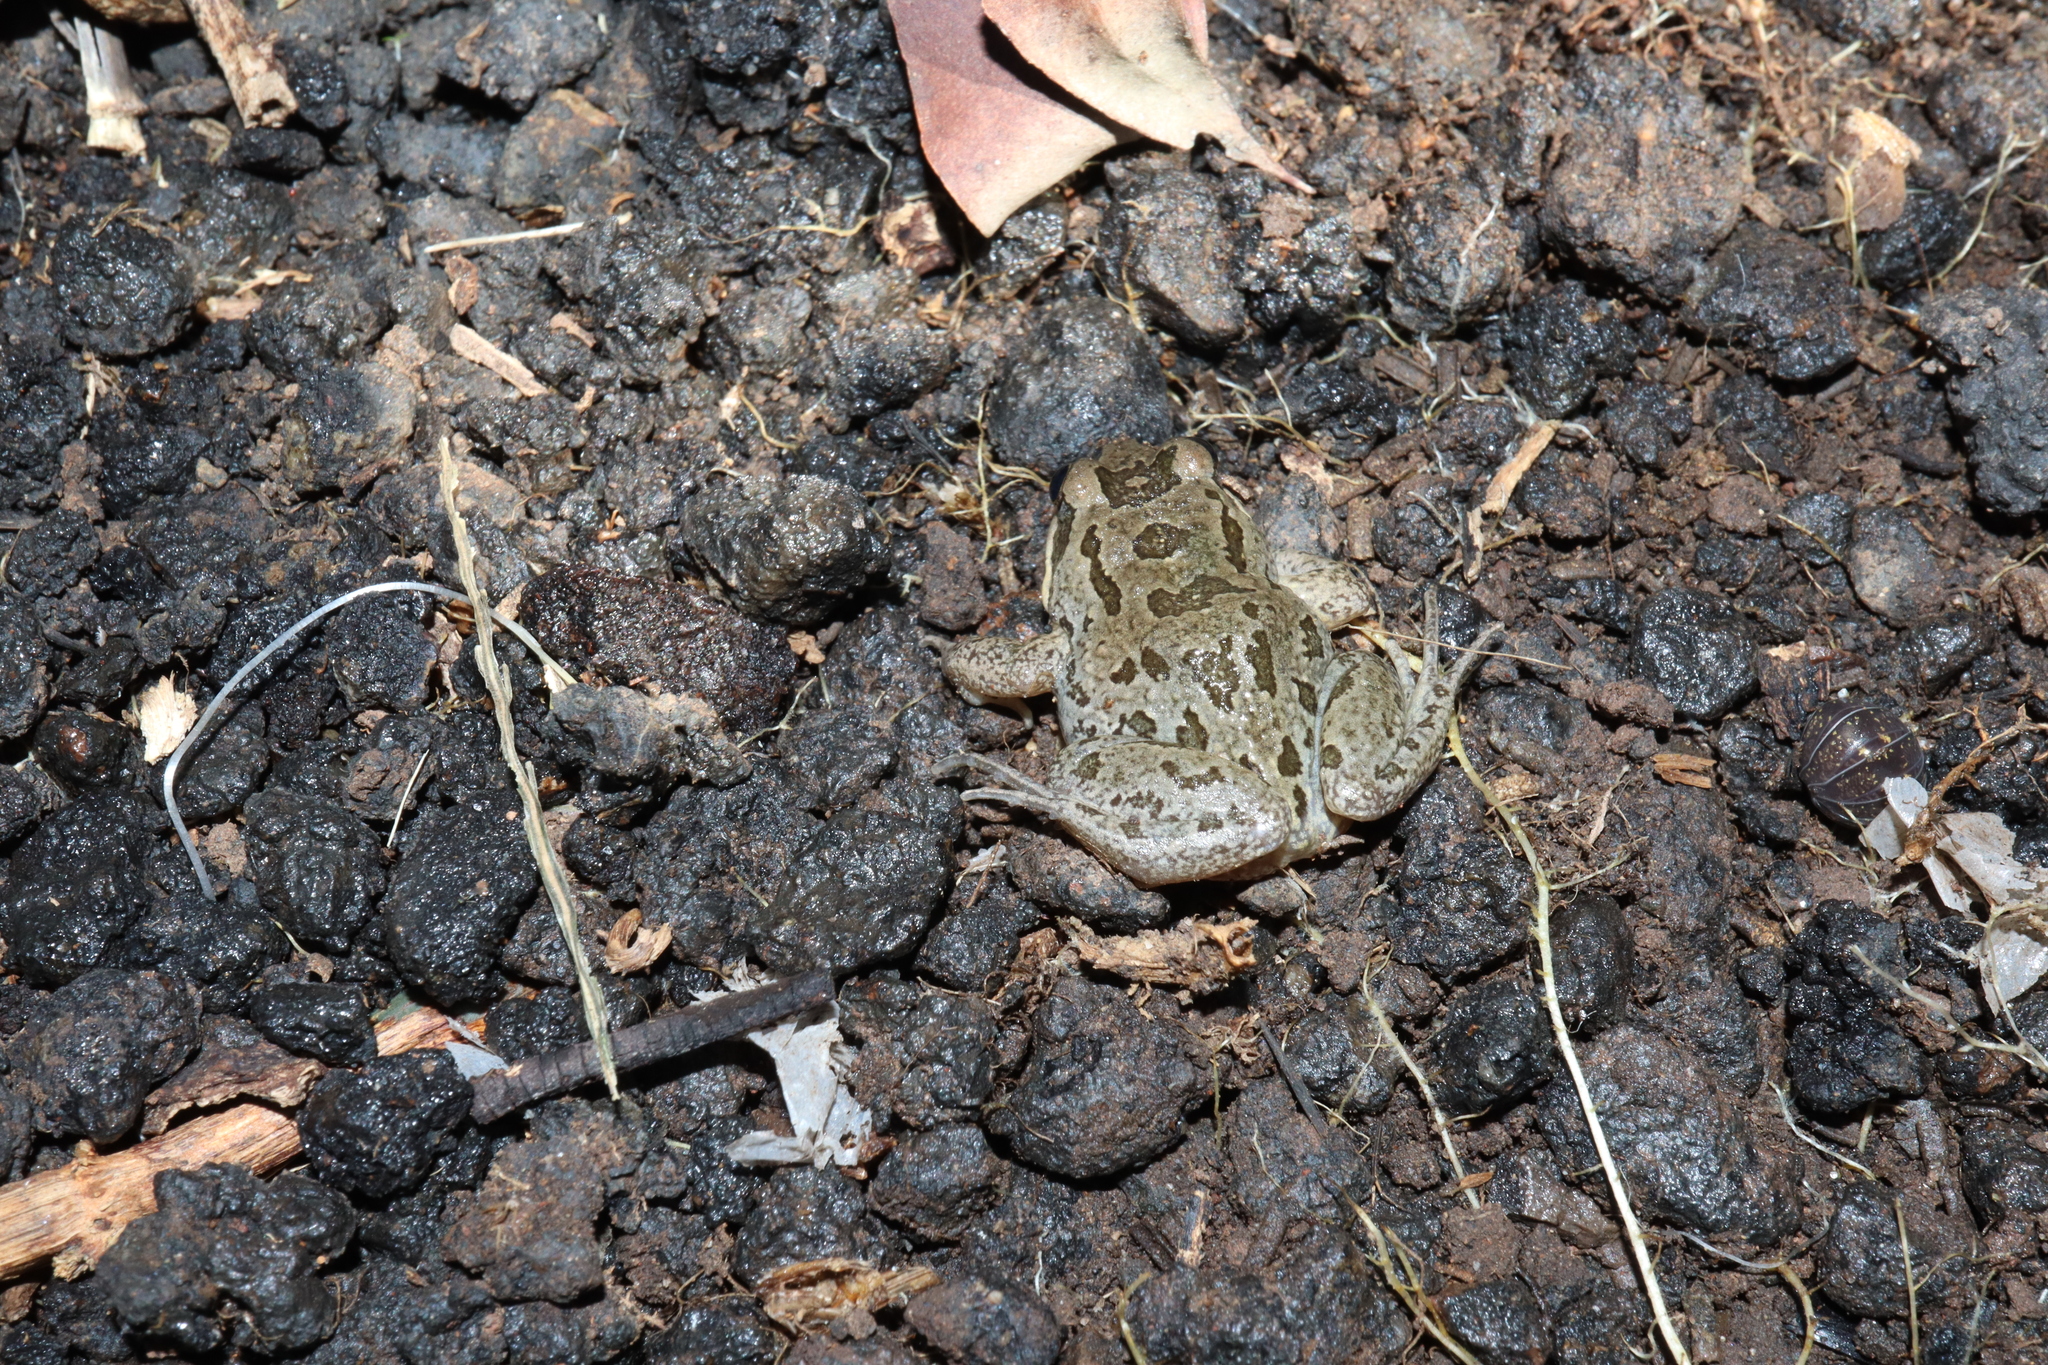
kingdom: Animalia
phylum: Chordata
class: Amphibia
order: Anura
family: Limnodynastidae
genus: Limnodynastes
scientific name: Limnodynastes tasmaniensis
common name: Spotted marsh frog
